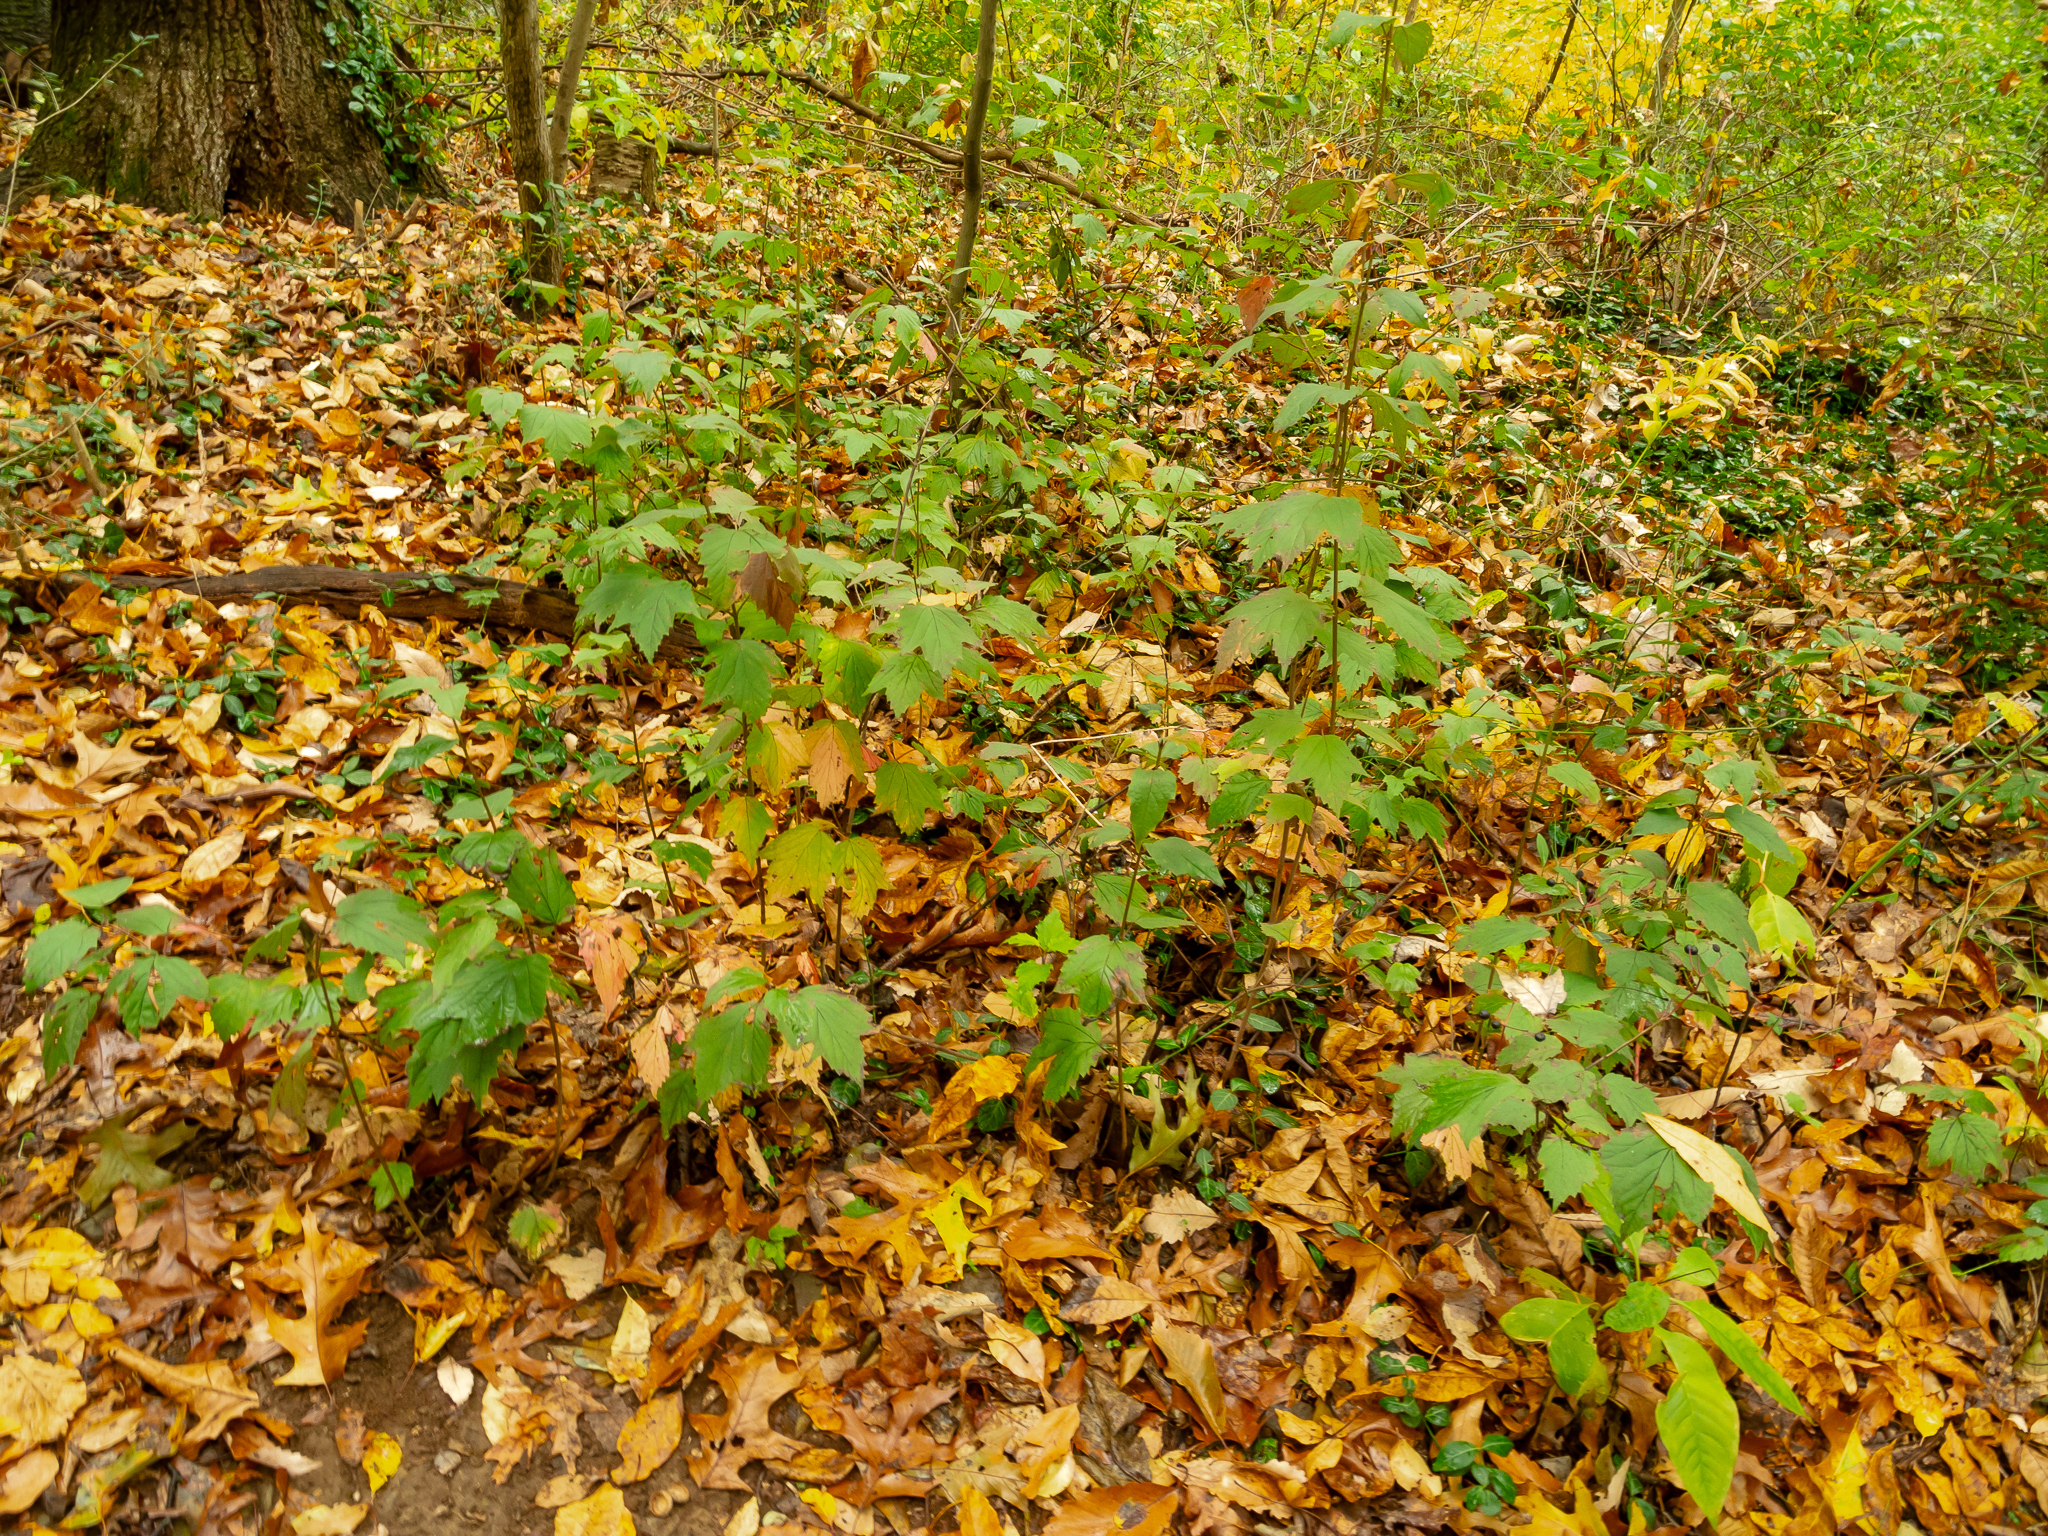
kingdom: Plantae
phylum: Tracheophyta
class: Magnoliopsida
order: Dipsacales
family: Viburnaceae
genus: Viburnum
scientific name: Viburnum acerifolium
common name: Dockmackie
